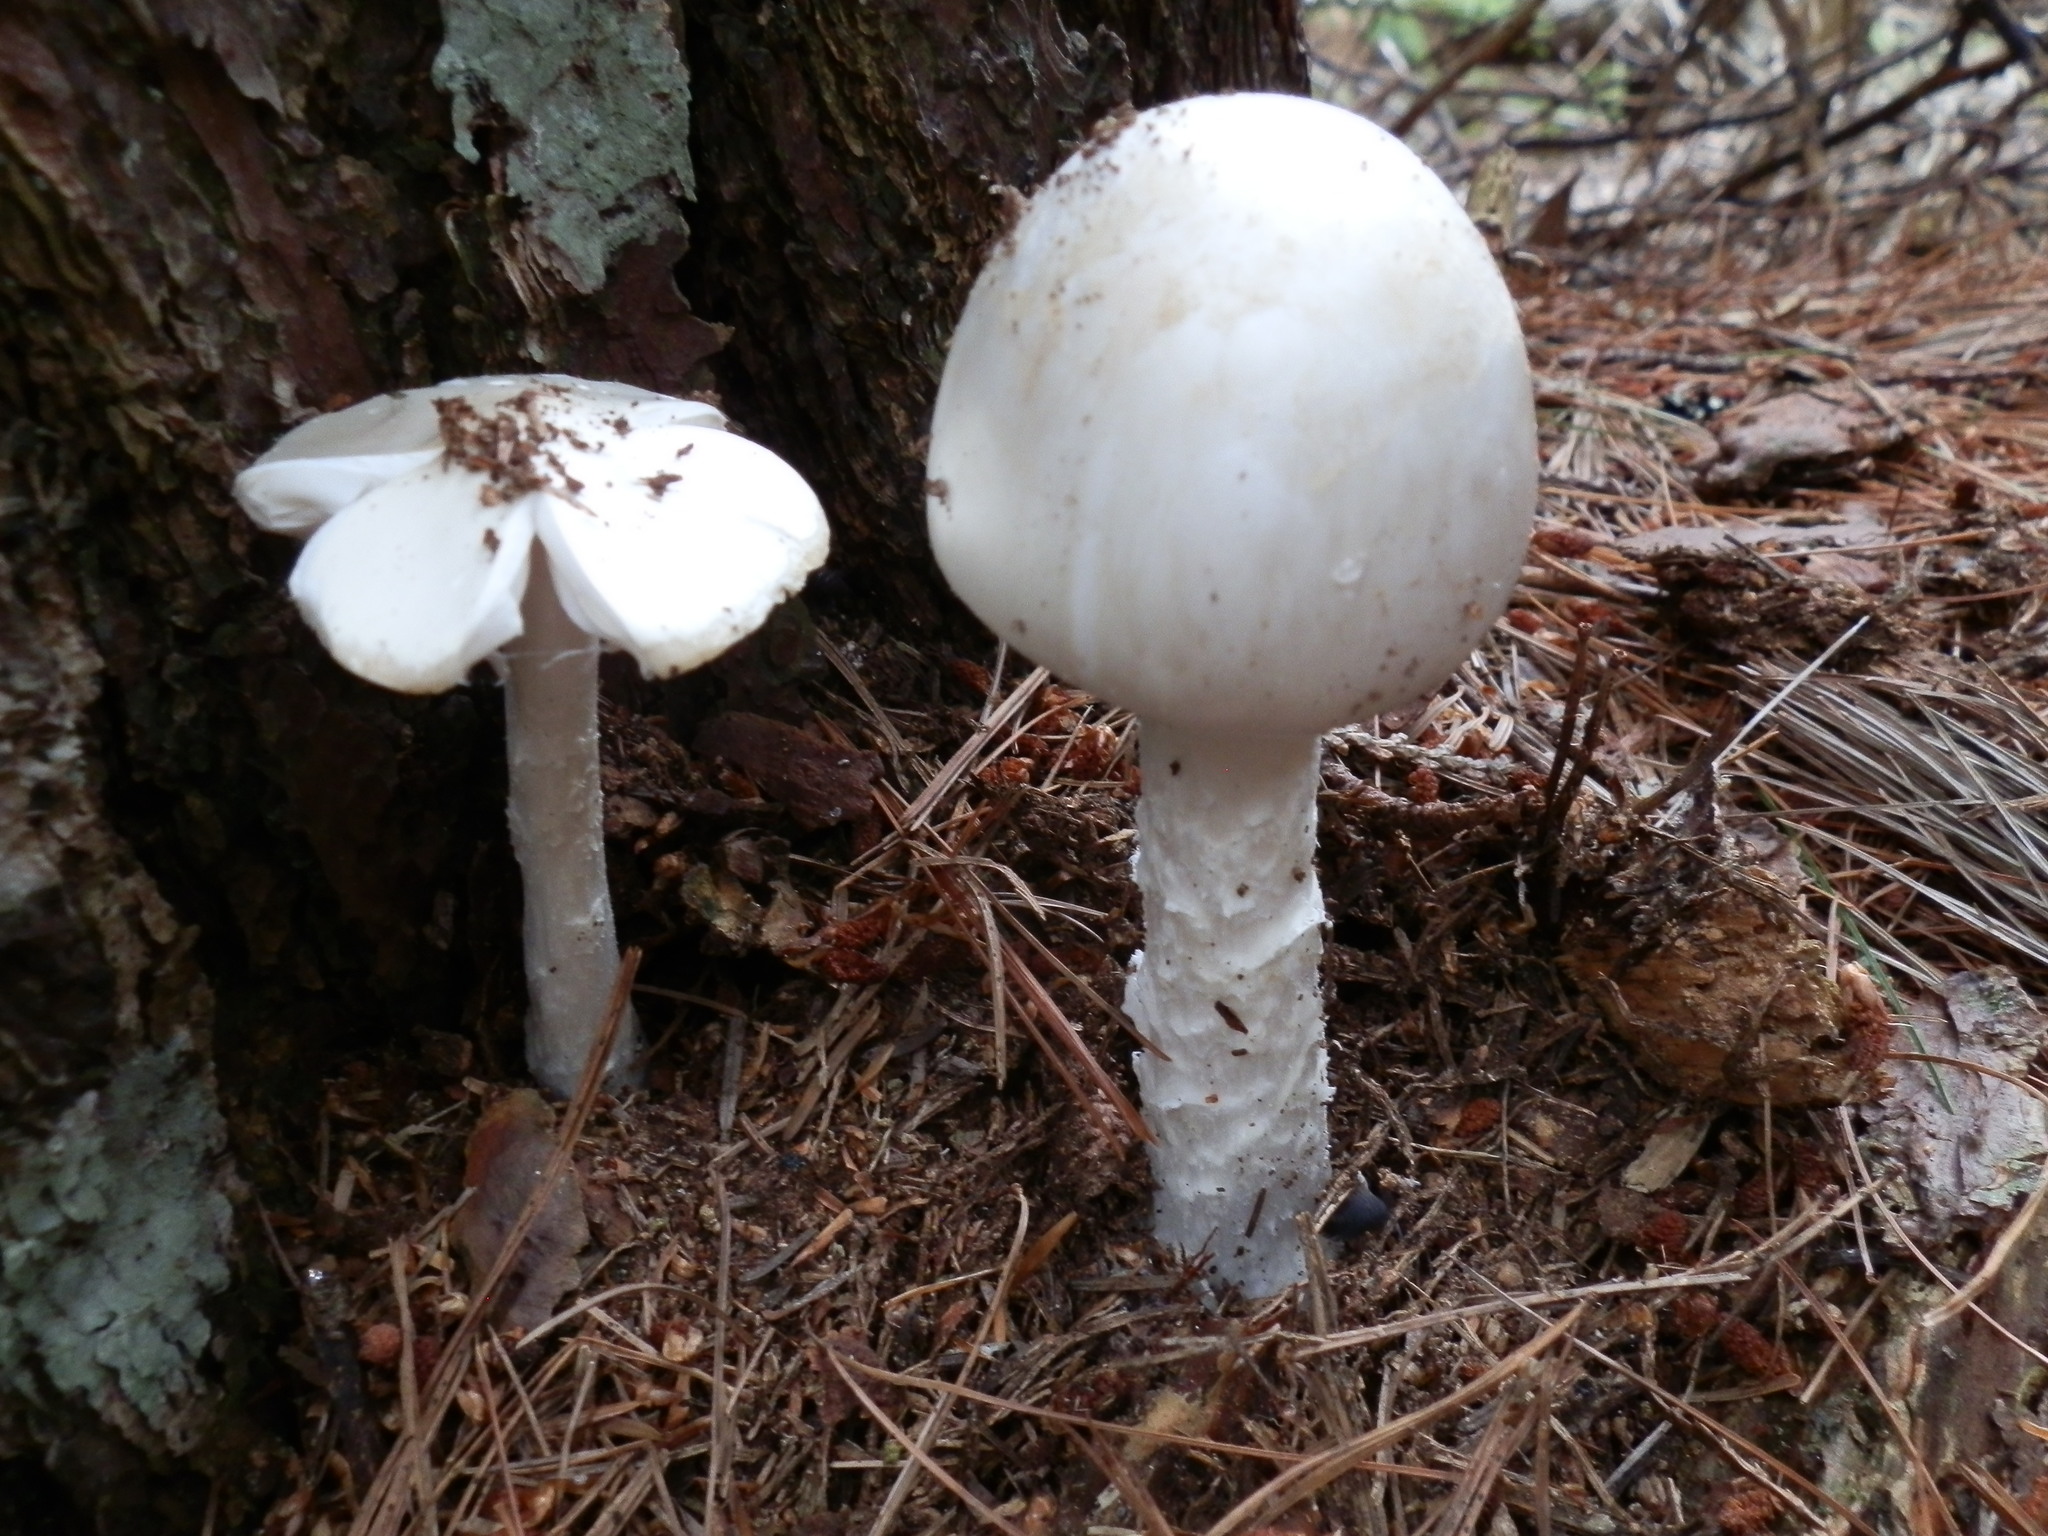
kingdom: Fungi
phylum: Basidiomycota
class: Agaricomycetes
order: Agaricales
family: Amanitaceae
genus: Amanita
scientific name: Amanita bisporigera
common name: Eastern north american destroying angel
